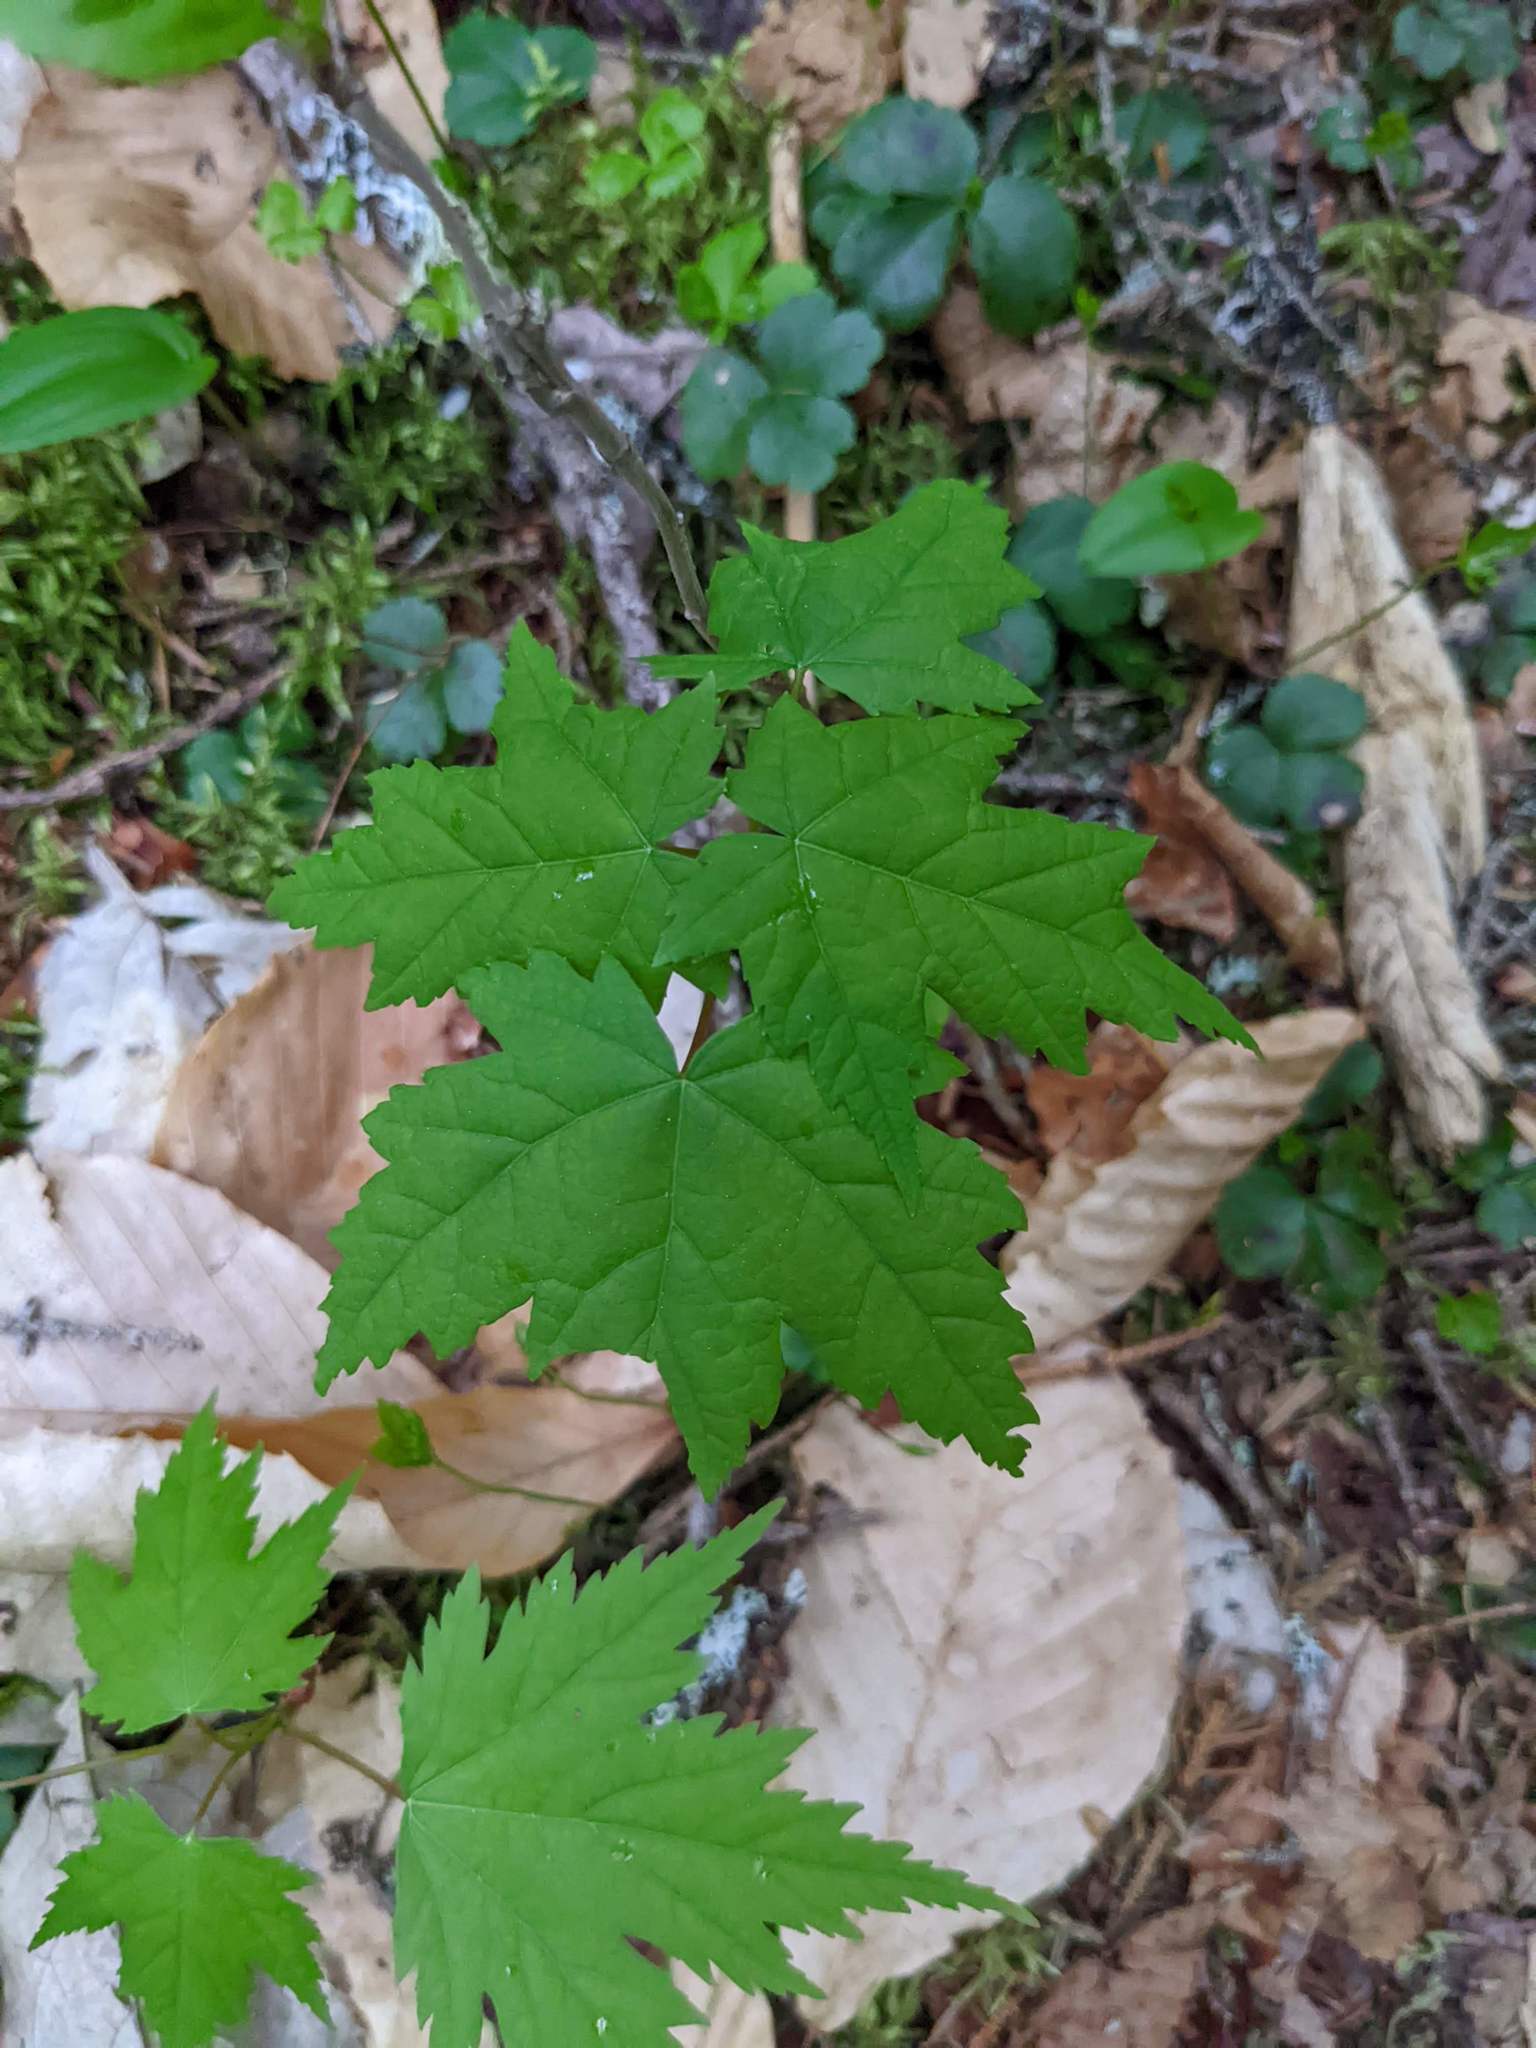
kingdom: Plantae
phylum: Tracheophyta
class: Magnoliopsida
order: Sapindales
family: Sapindaceae
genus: Acer
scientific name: Acer rubrum
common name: Red maple
